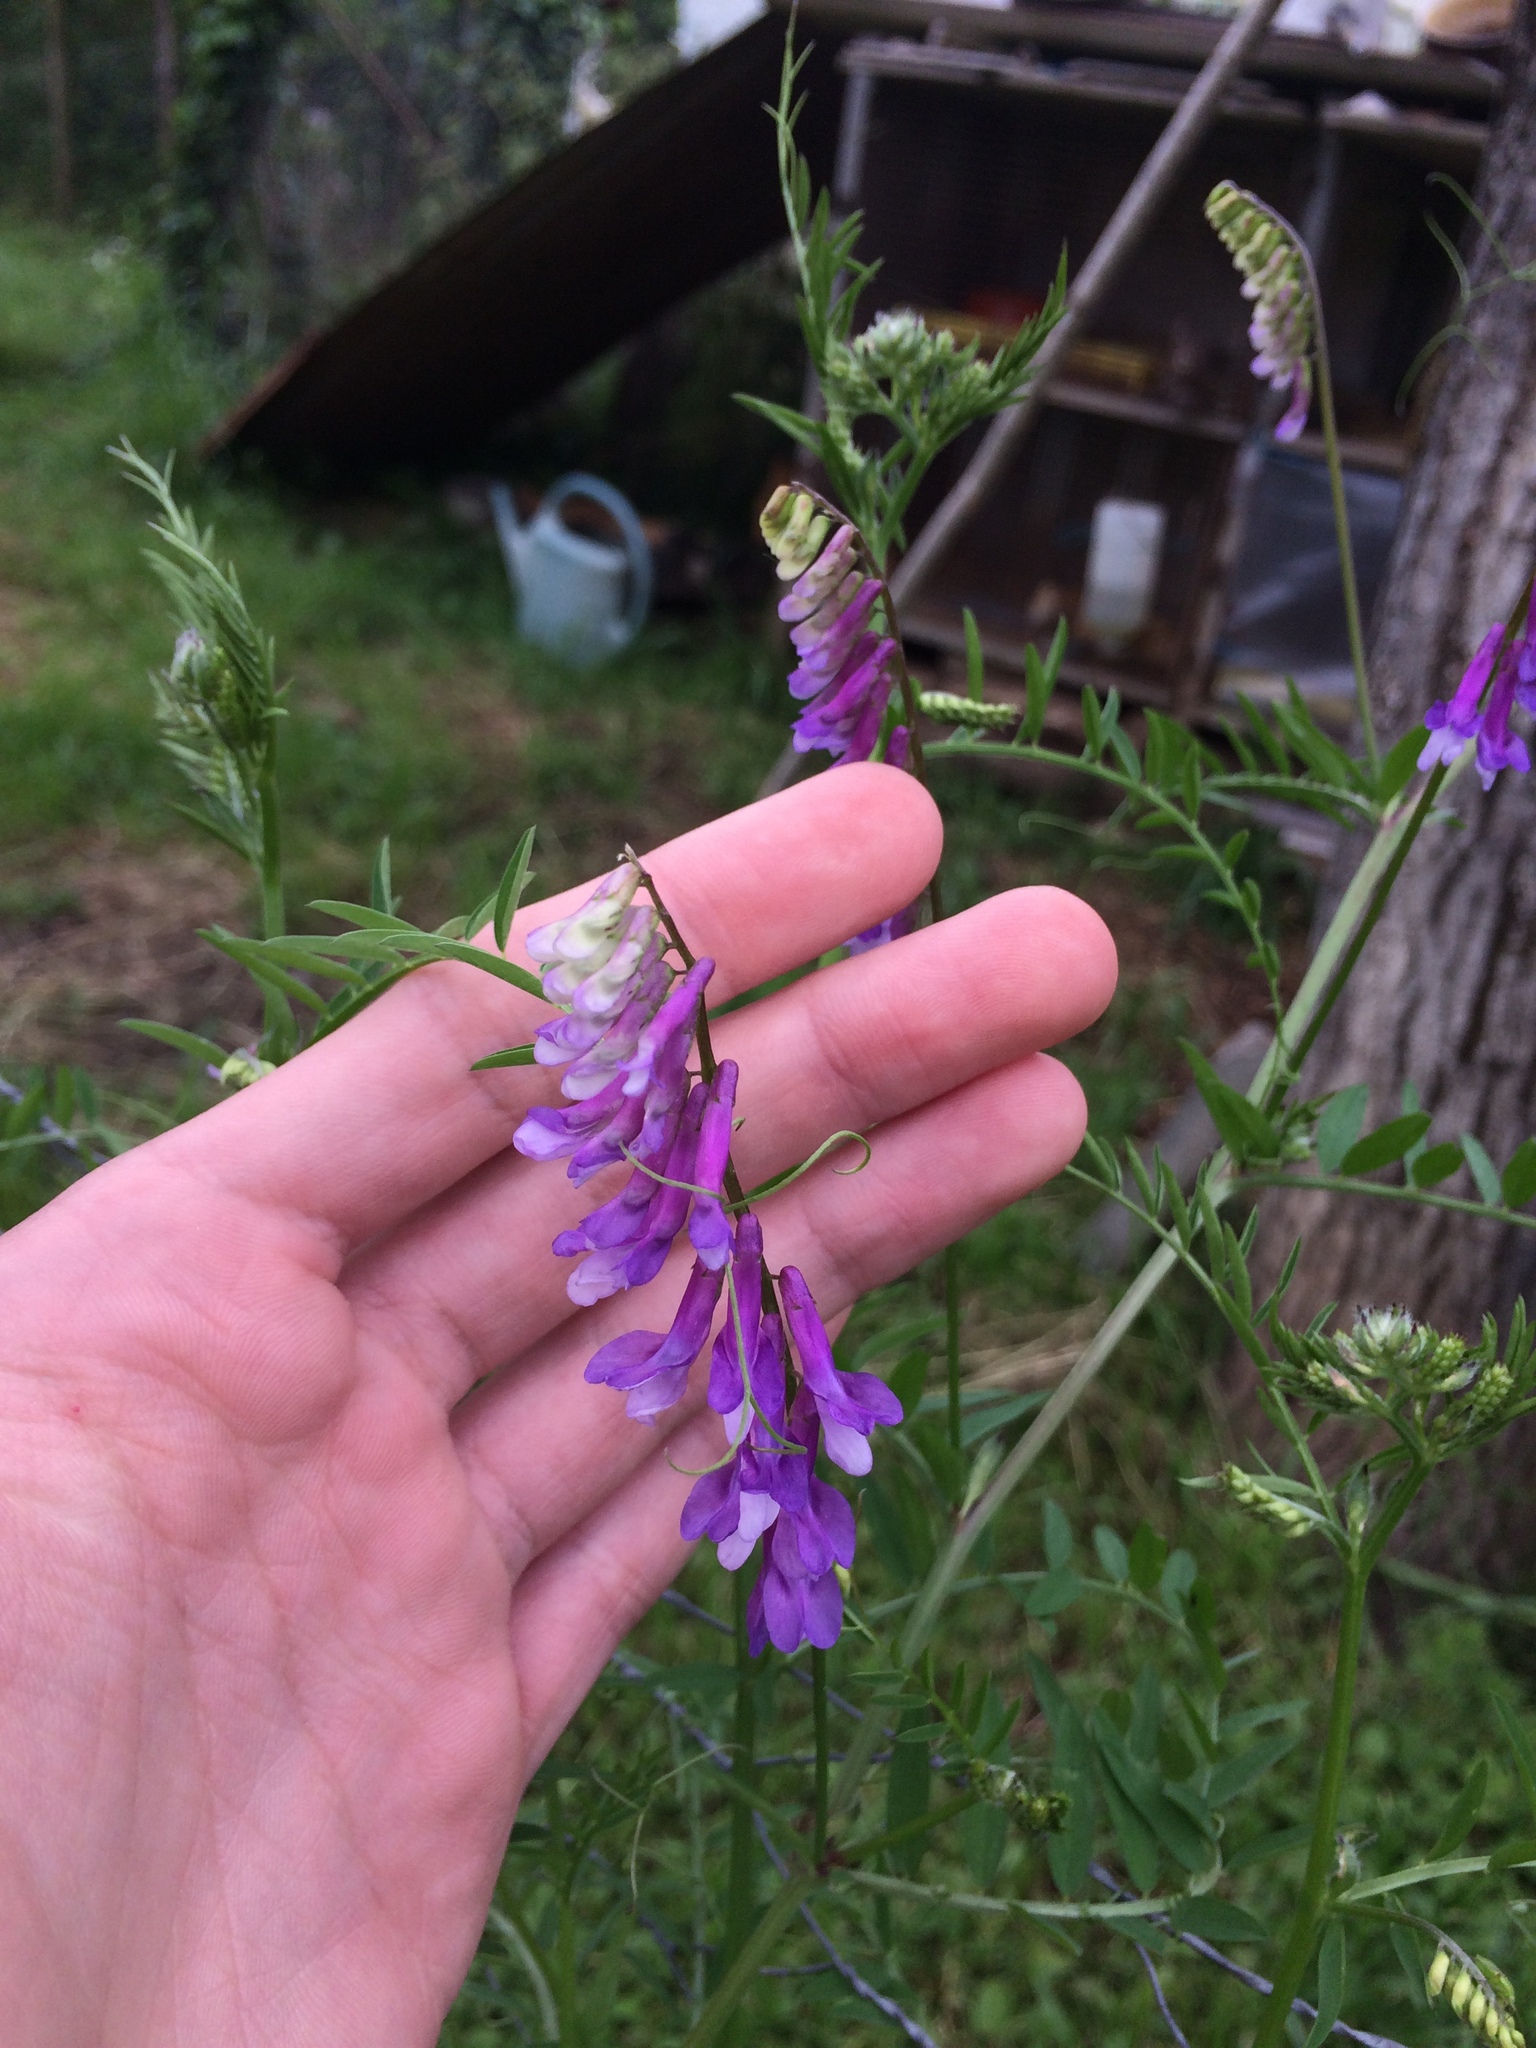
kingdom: Plantae
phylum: Tracheophyta
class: Magnoliopsida
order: Fabales
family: Fabaceae
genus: Vicia
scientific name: Vicia villosa
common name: Fodder vetch
